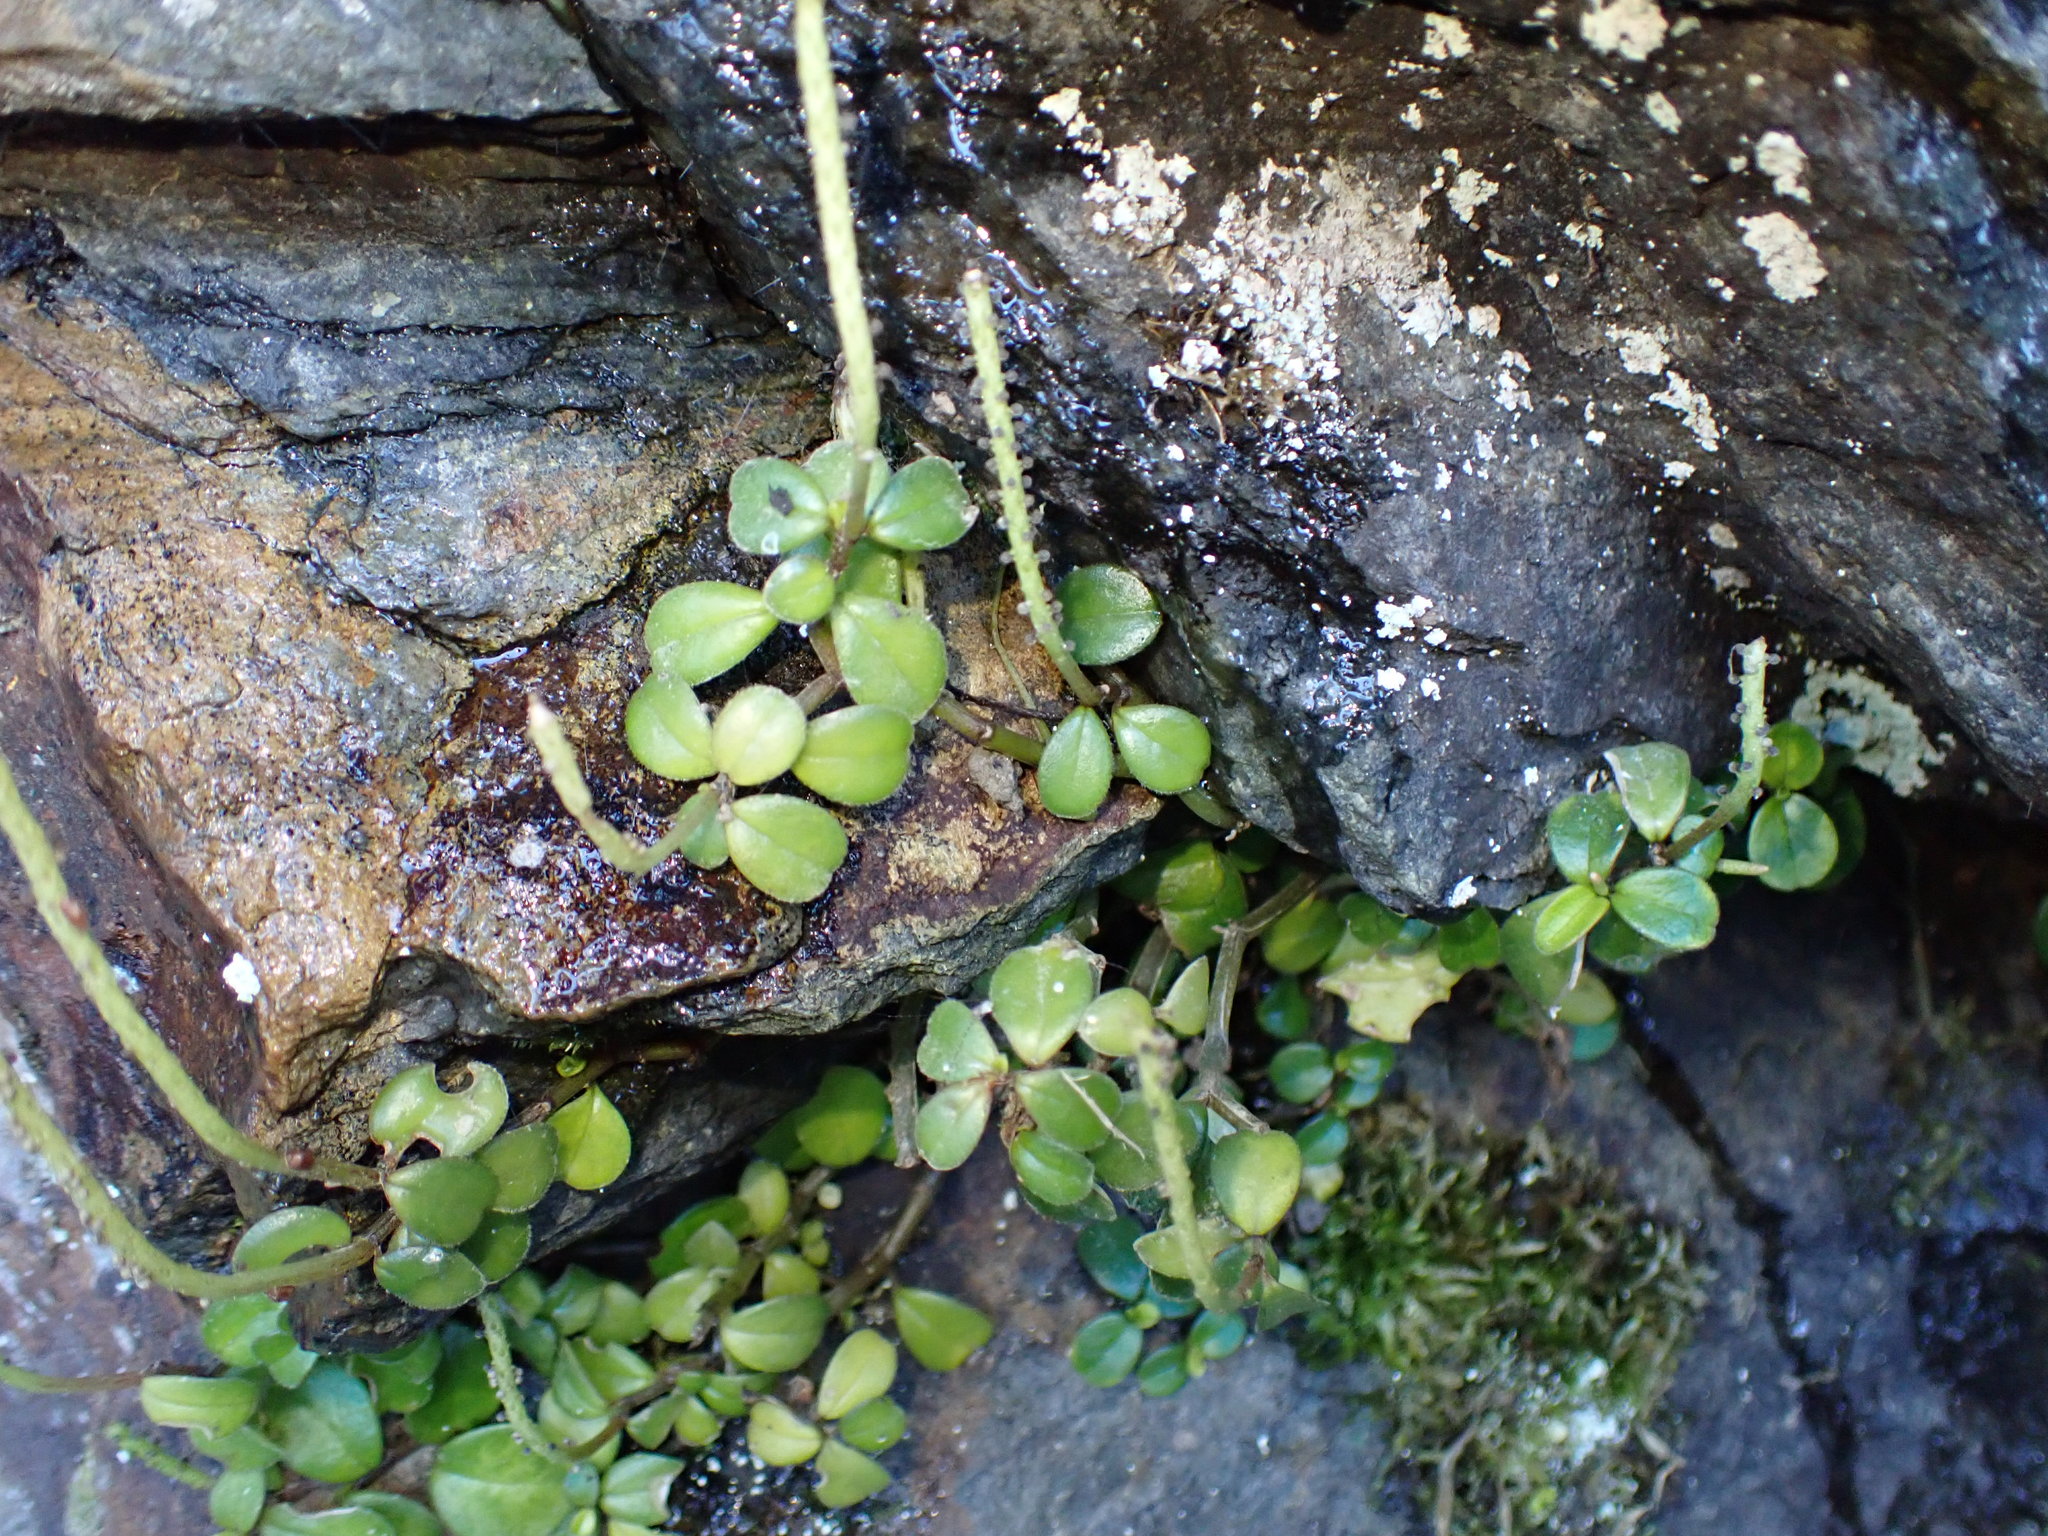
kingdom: Plantae
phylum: Tracheophyta
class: Magnoliopsida
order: Piperales
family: Piperaceae
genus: Peperomia
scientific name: Peperomia retusa
